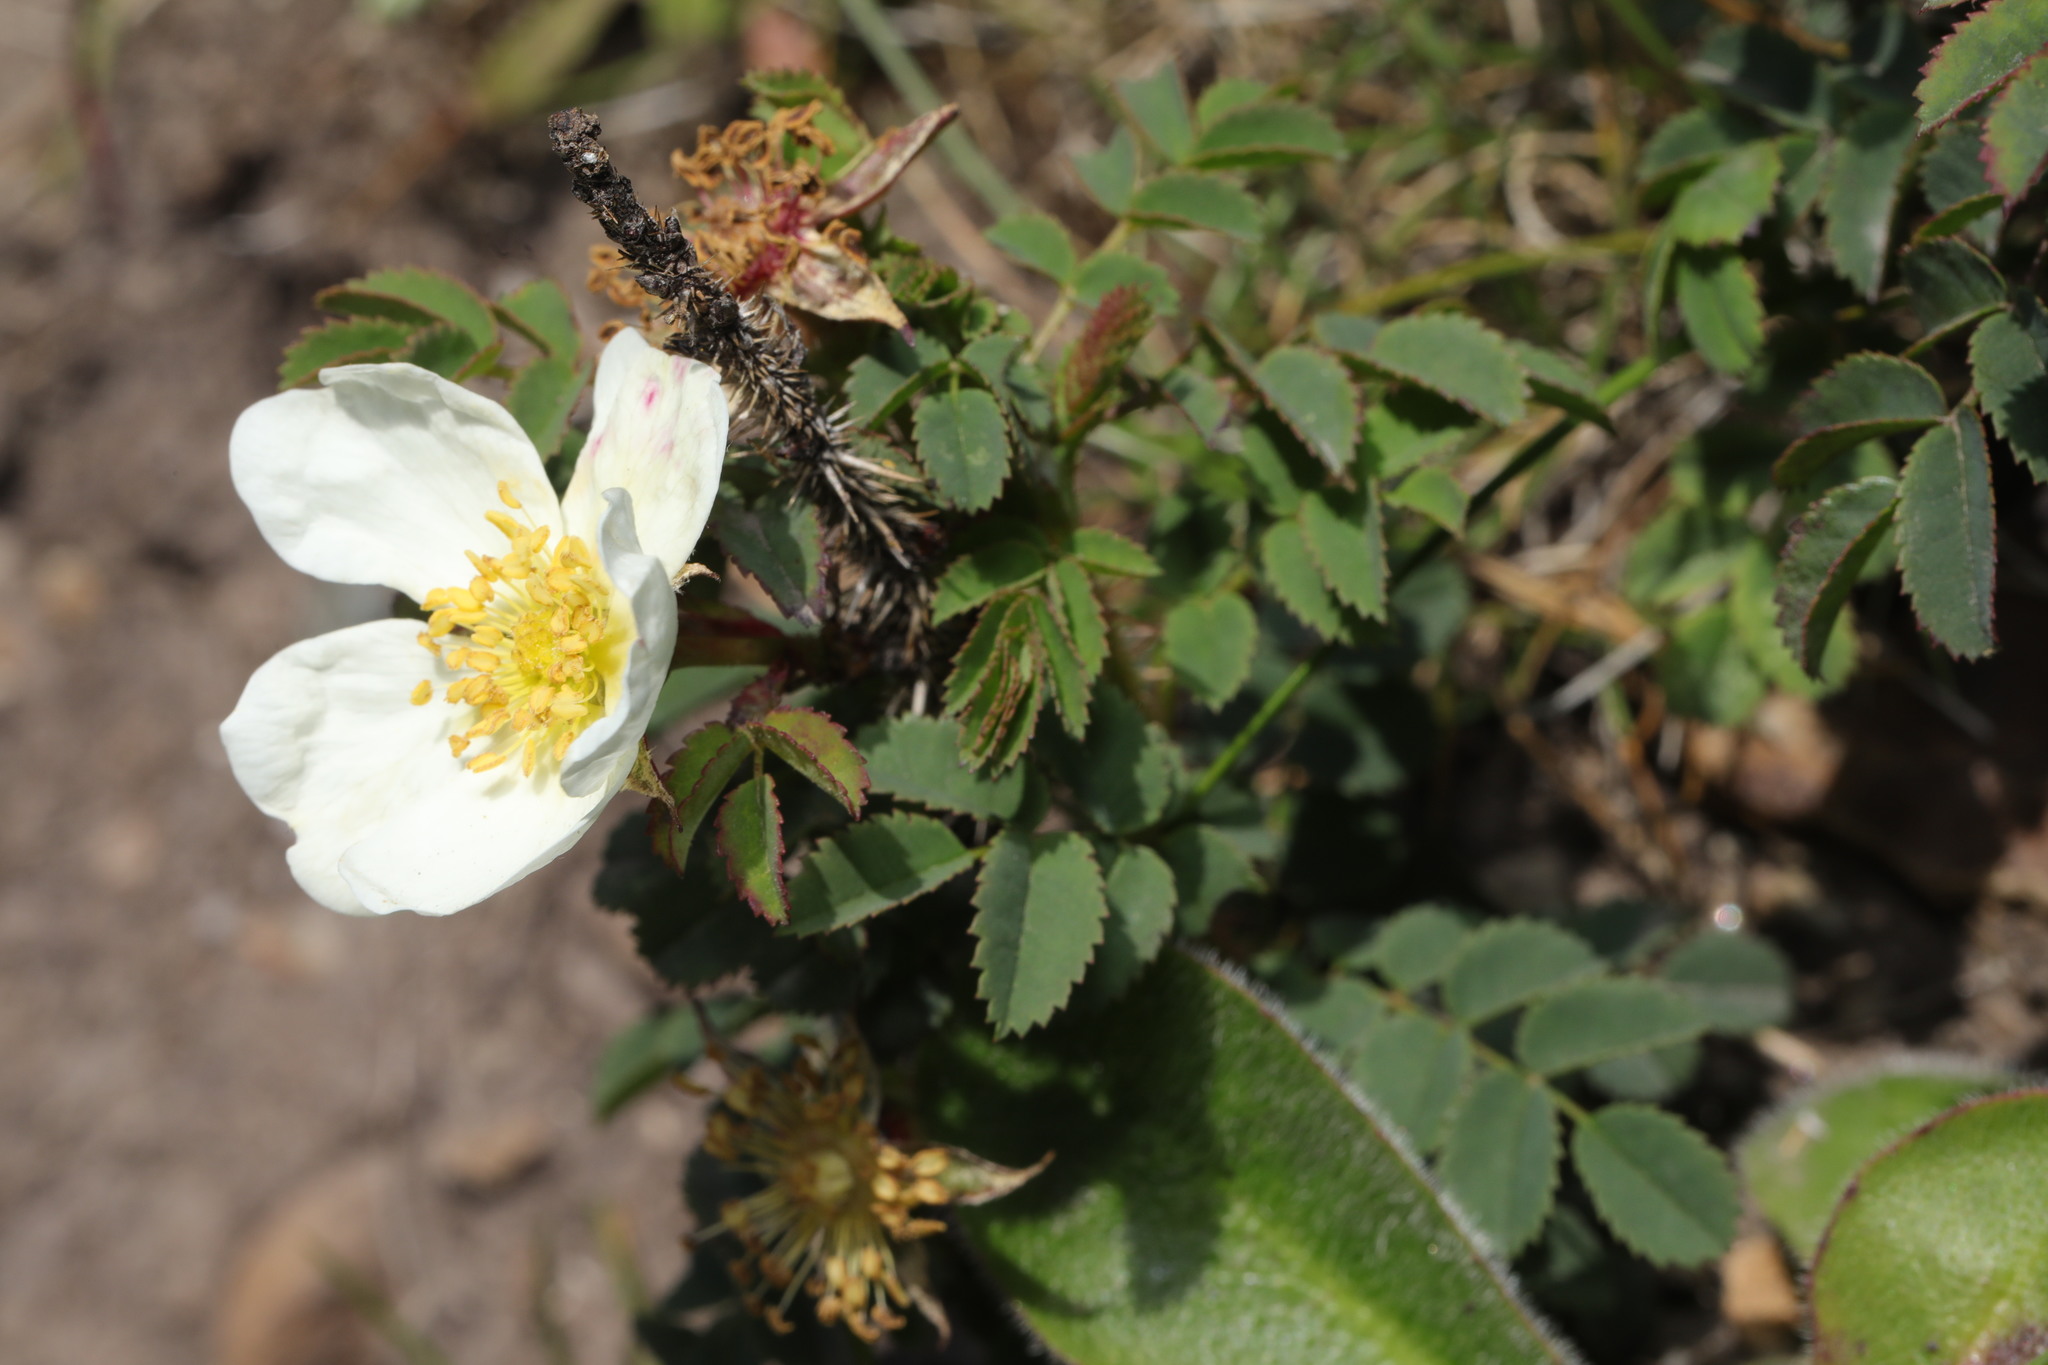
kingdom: Plantae
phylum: Tracheophyta
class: Magnoliopsida
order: Rosales
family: Rosaceae
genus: Rosa
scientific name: Rosa spinosissima
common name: Burnet rose
